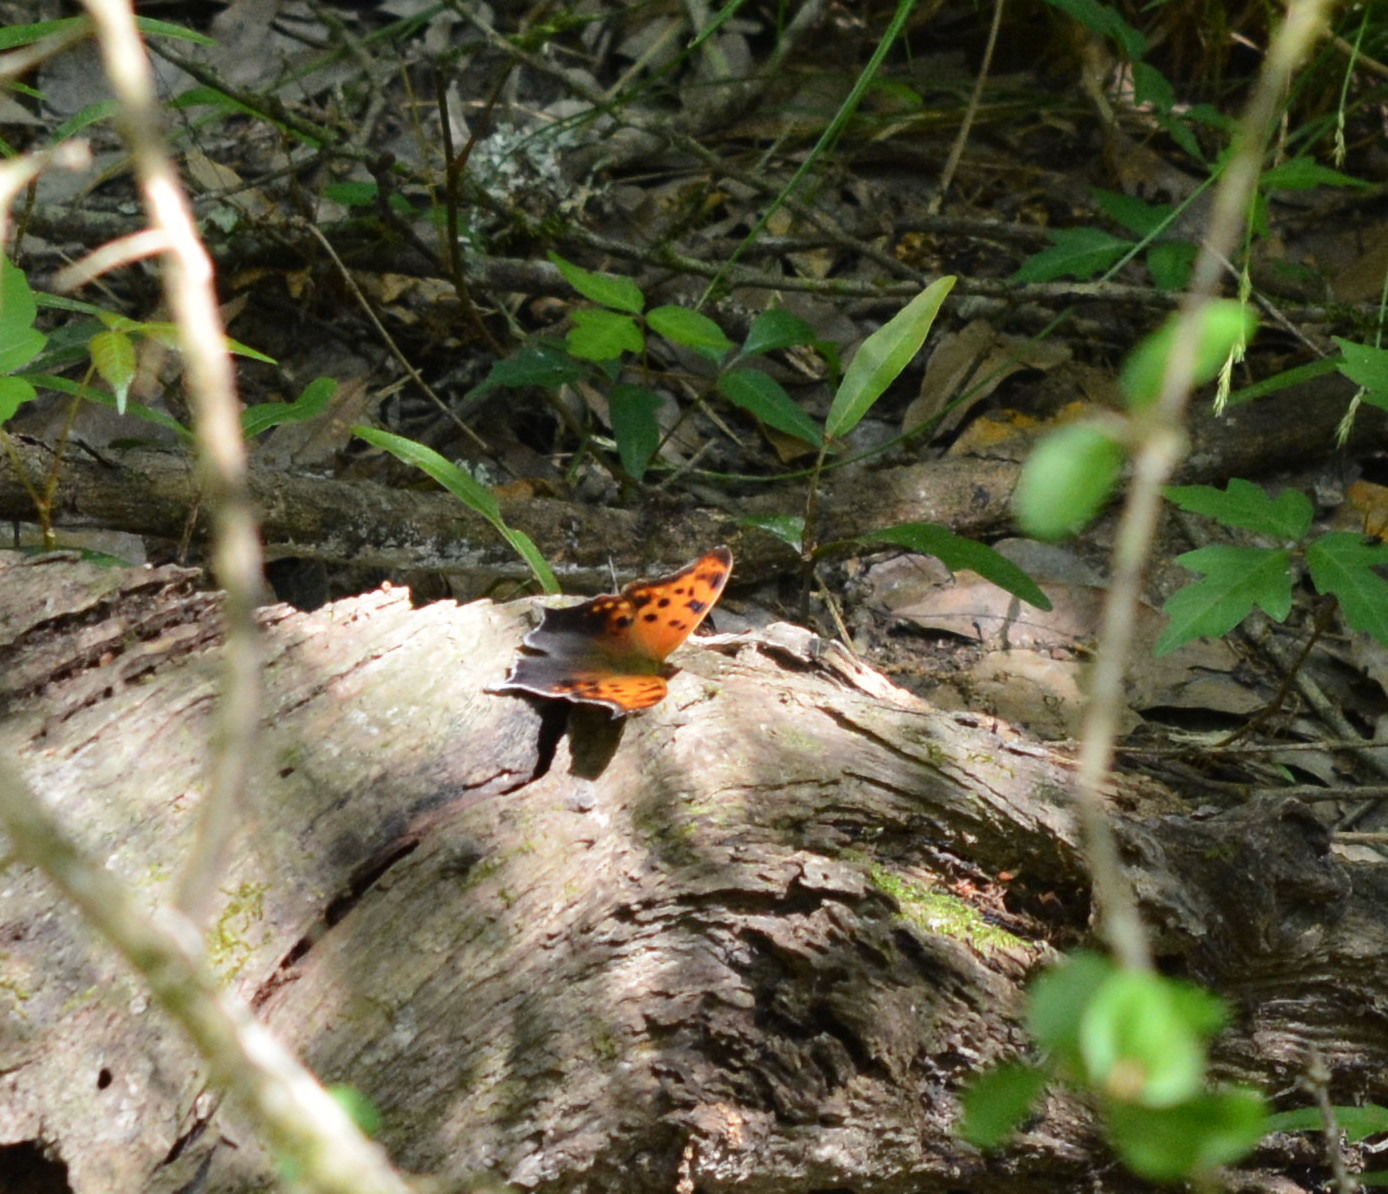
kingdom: Animalia
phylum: Arthropoda
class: Insecta
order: Lepidoptera
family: Nymphalidae
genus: Polygonia
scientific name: Polygonia interrogationis
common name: Question mark
